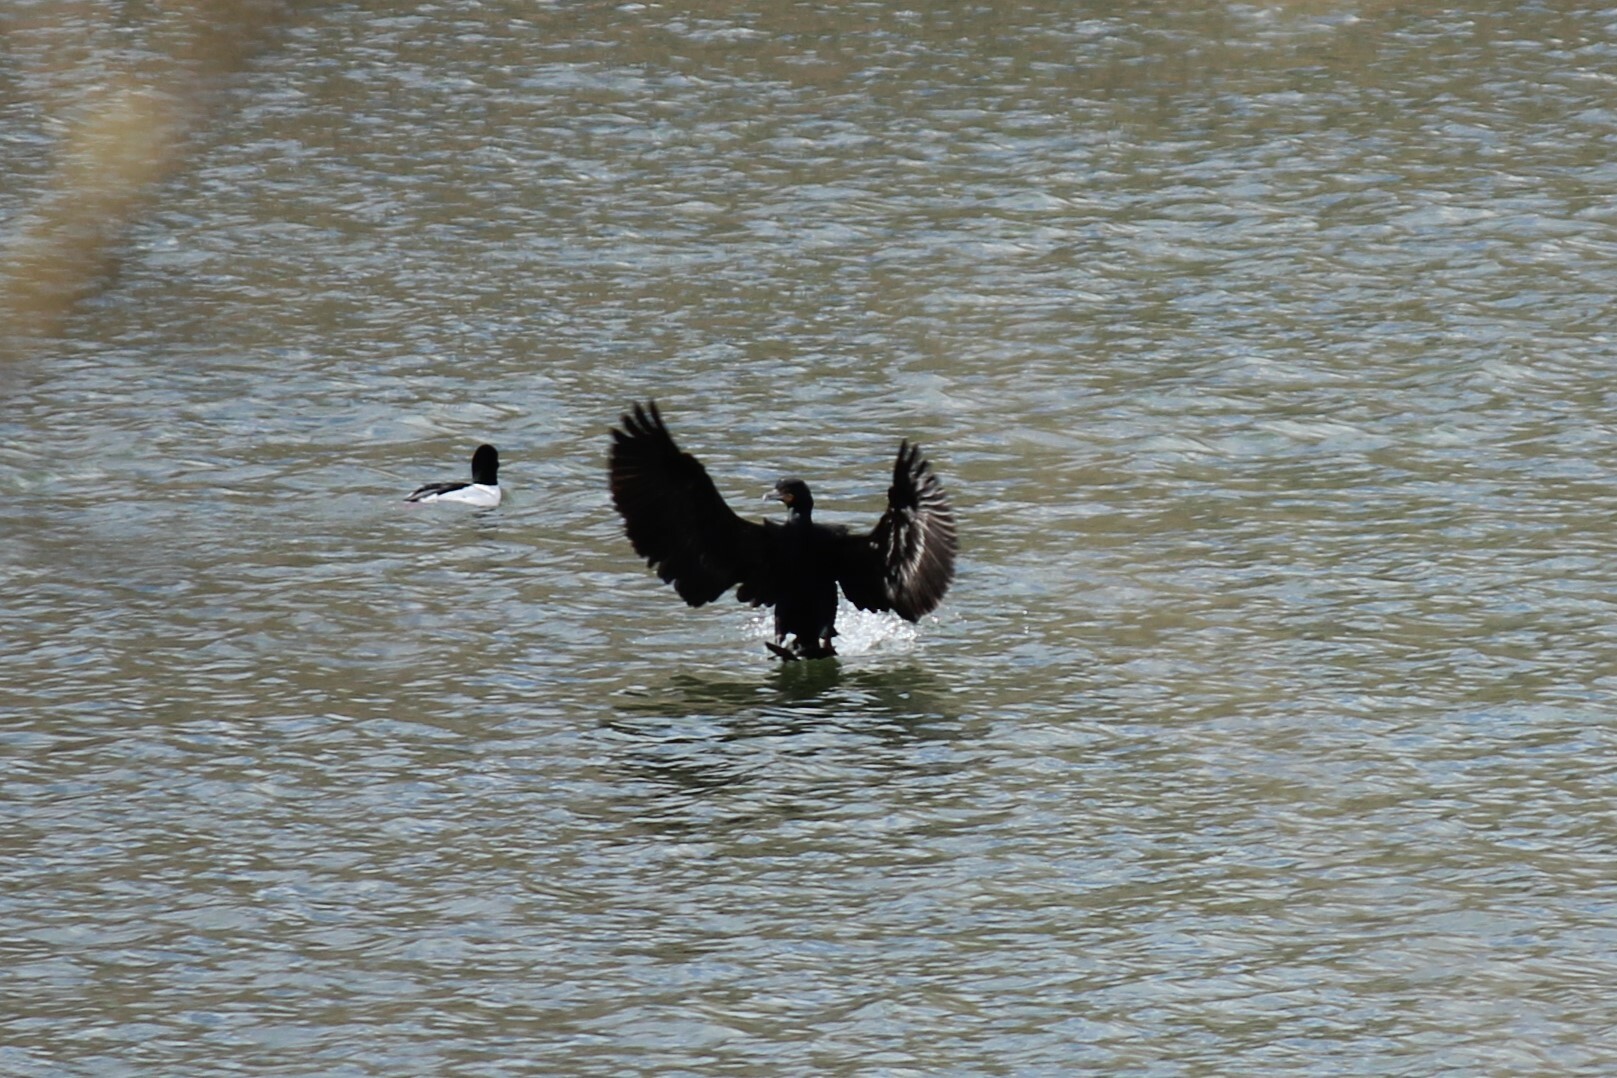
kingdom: Animalia
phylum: Chordata
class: Aves
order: Suliformes
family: Phalacrocoracidae
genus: Phalacrocorax
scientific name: Phalacrocorax auritus
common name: Double-crested cormorant
